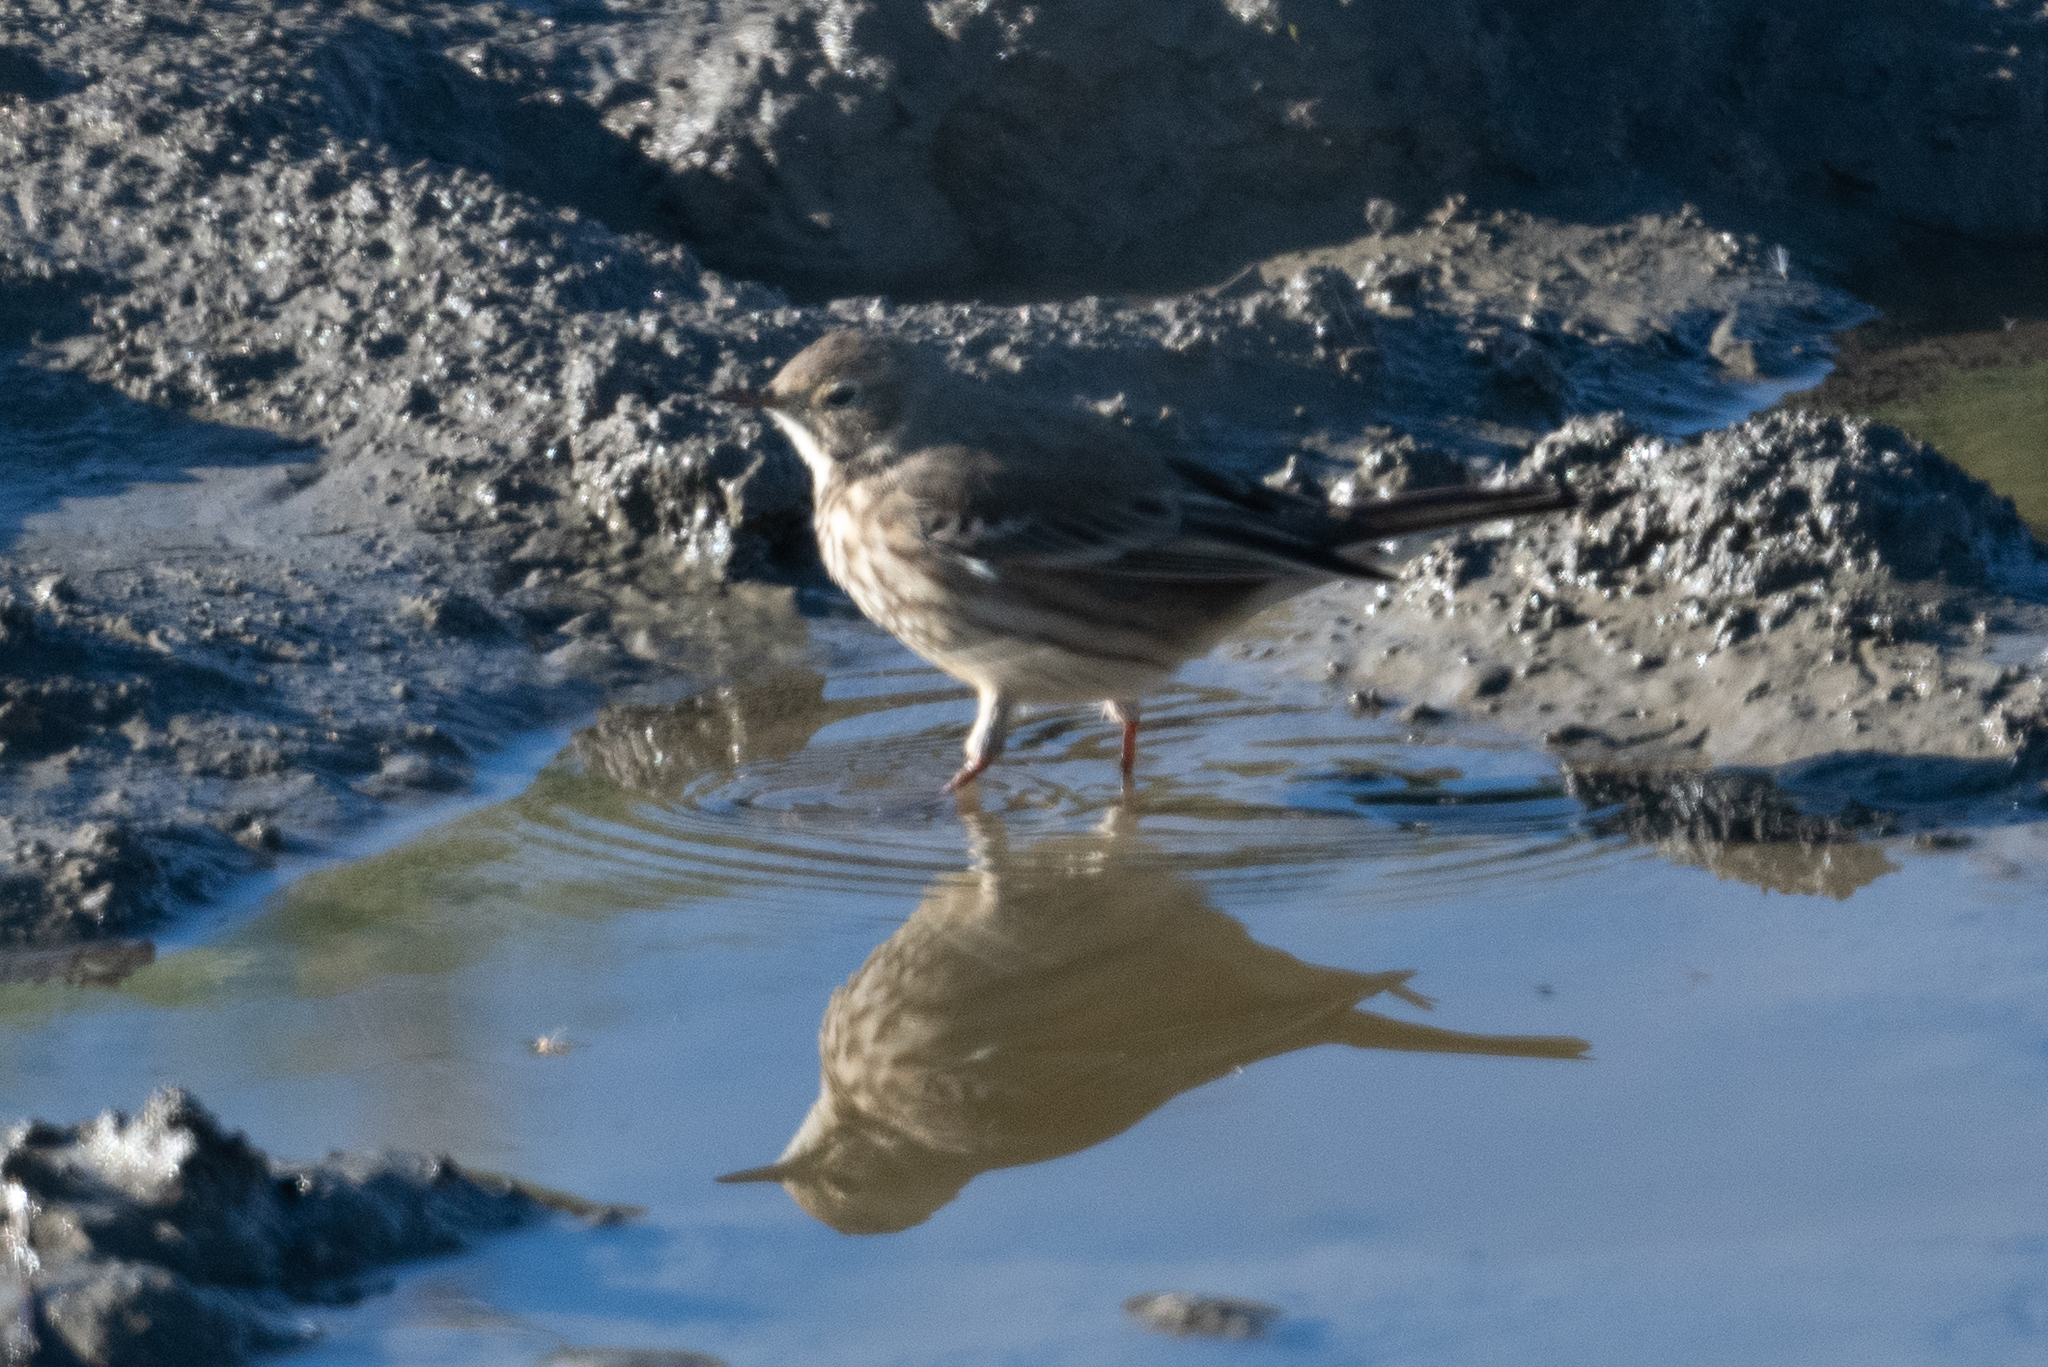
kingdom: Animalia
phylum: Chordata
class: Aves
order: Passeriformes
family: Motacillidae
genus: Anthus
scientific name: Anthus rubescens
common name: Buff-bellied pipit
